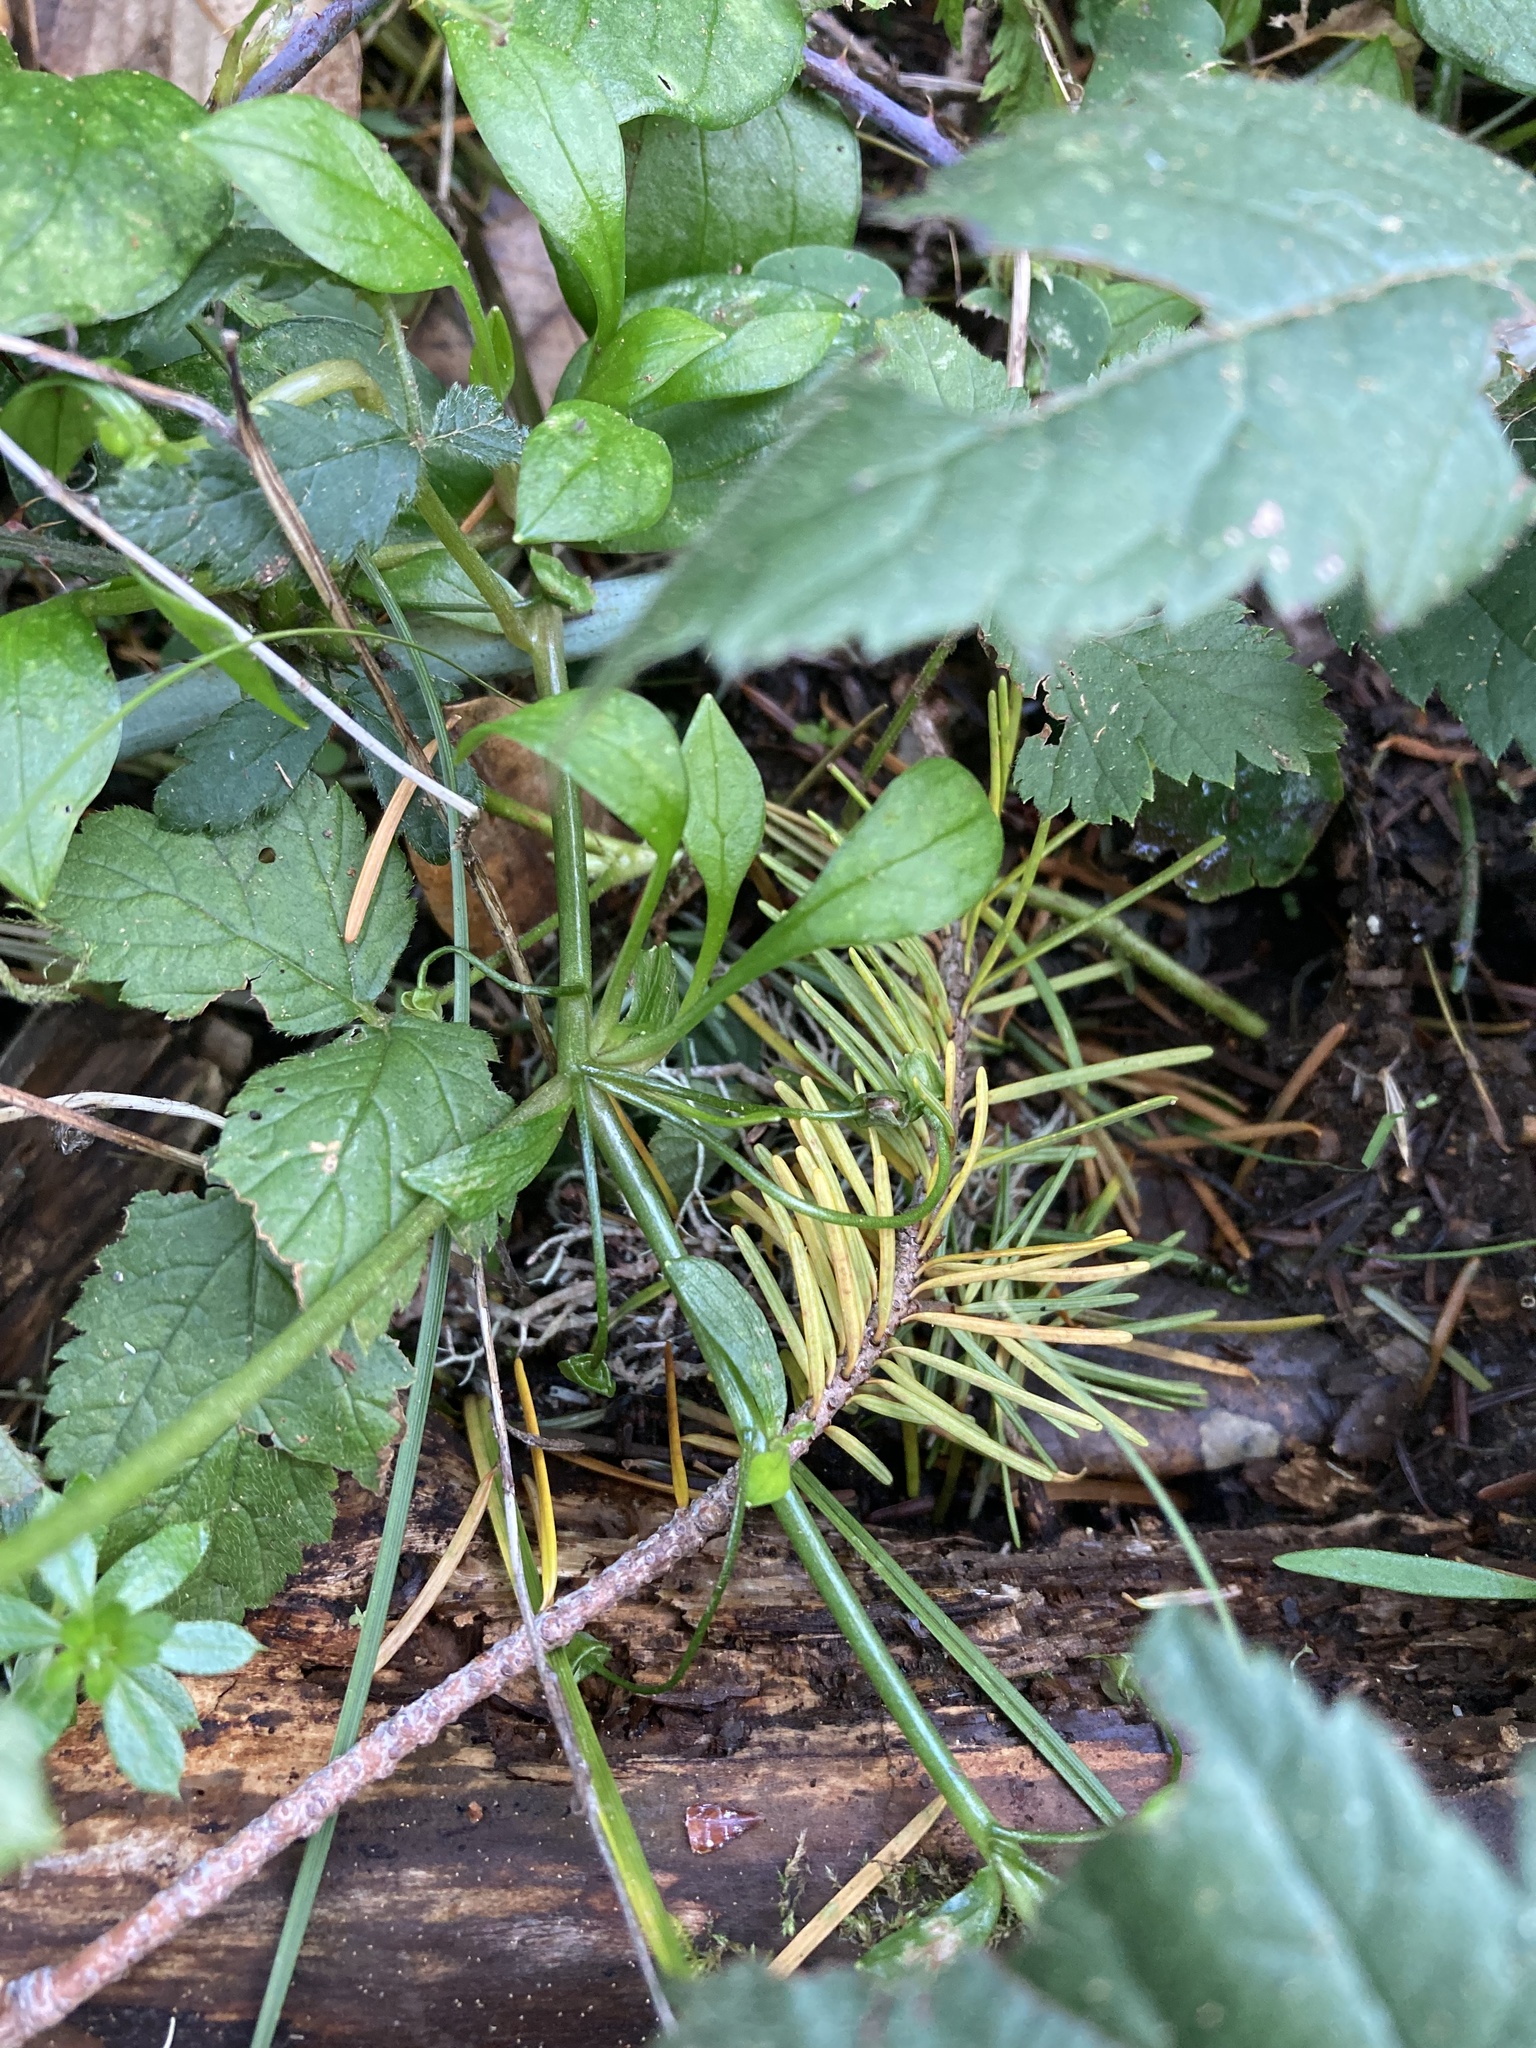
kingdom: Plantae
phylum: Tracheophyta
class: Magnoliopsida
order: Caryophyllales
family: Montiaceae
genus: Claytonia
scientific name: Claytonia sibirica
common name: Pink purslane
